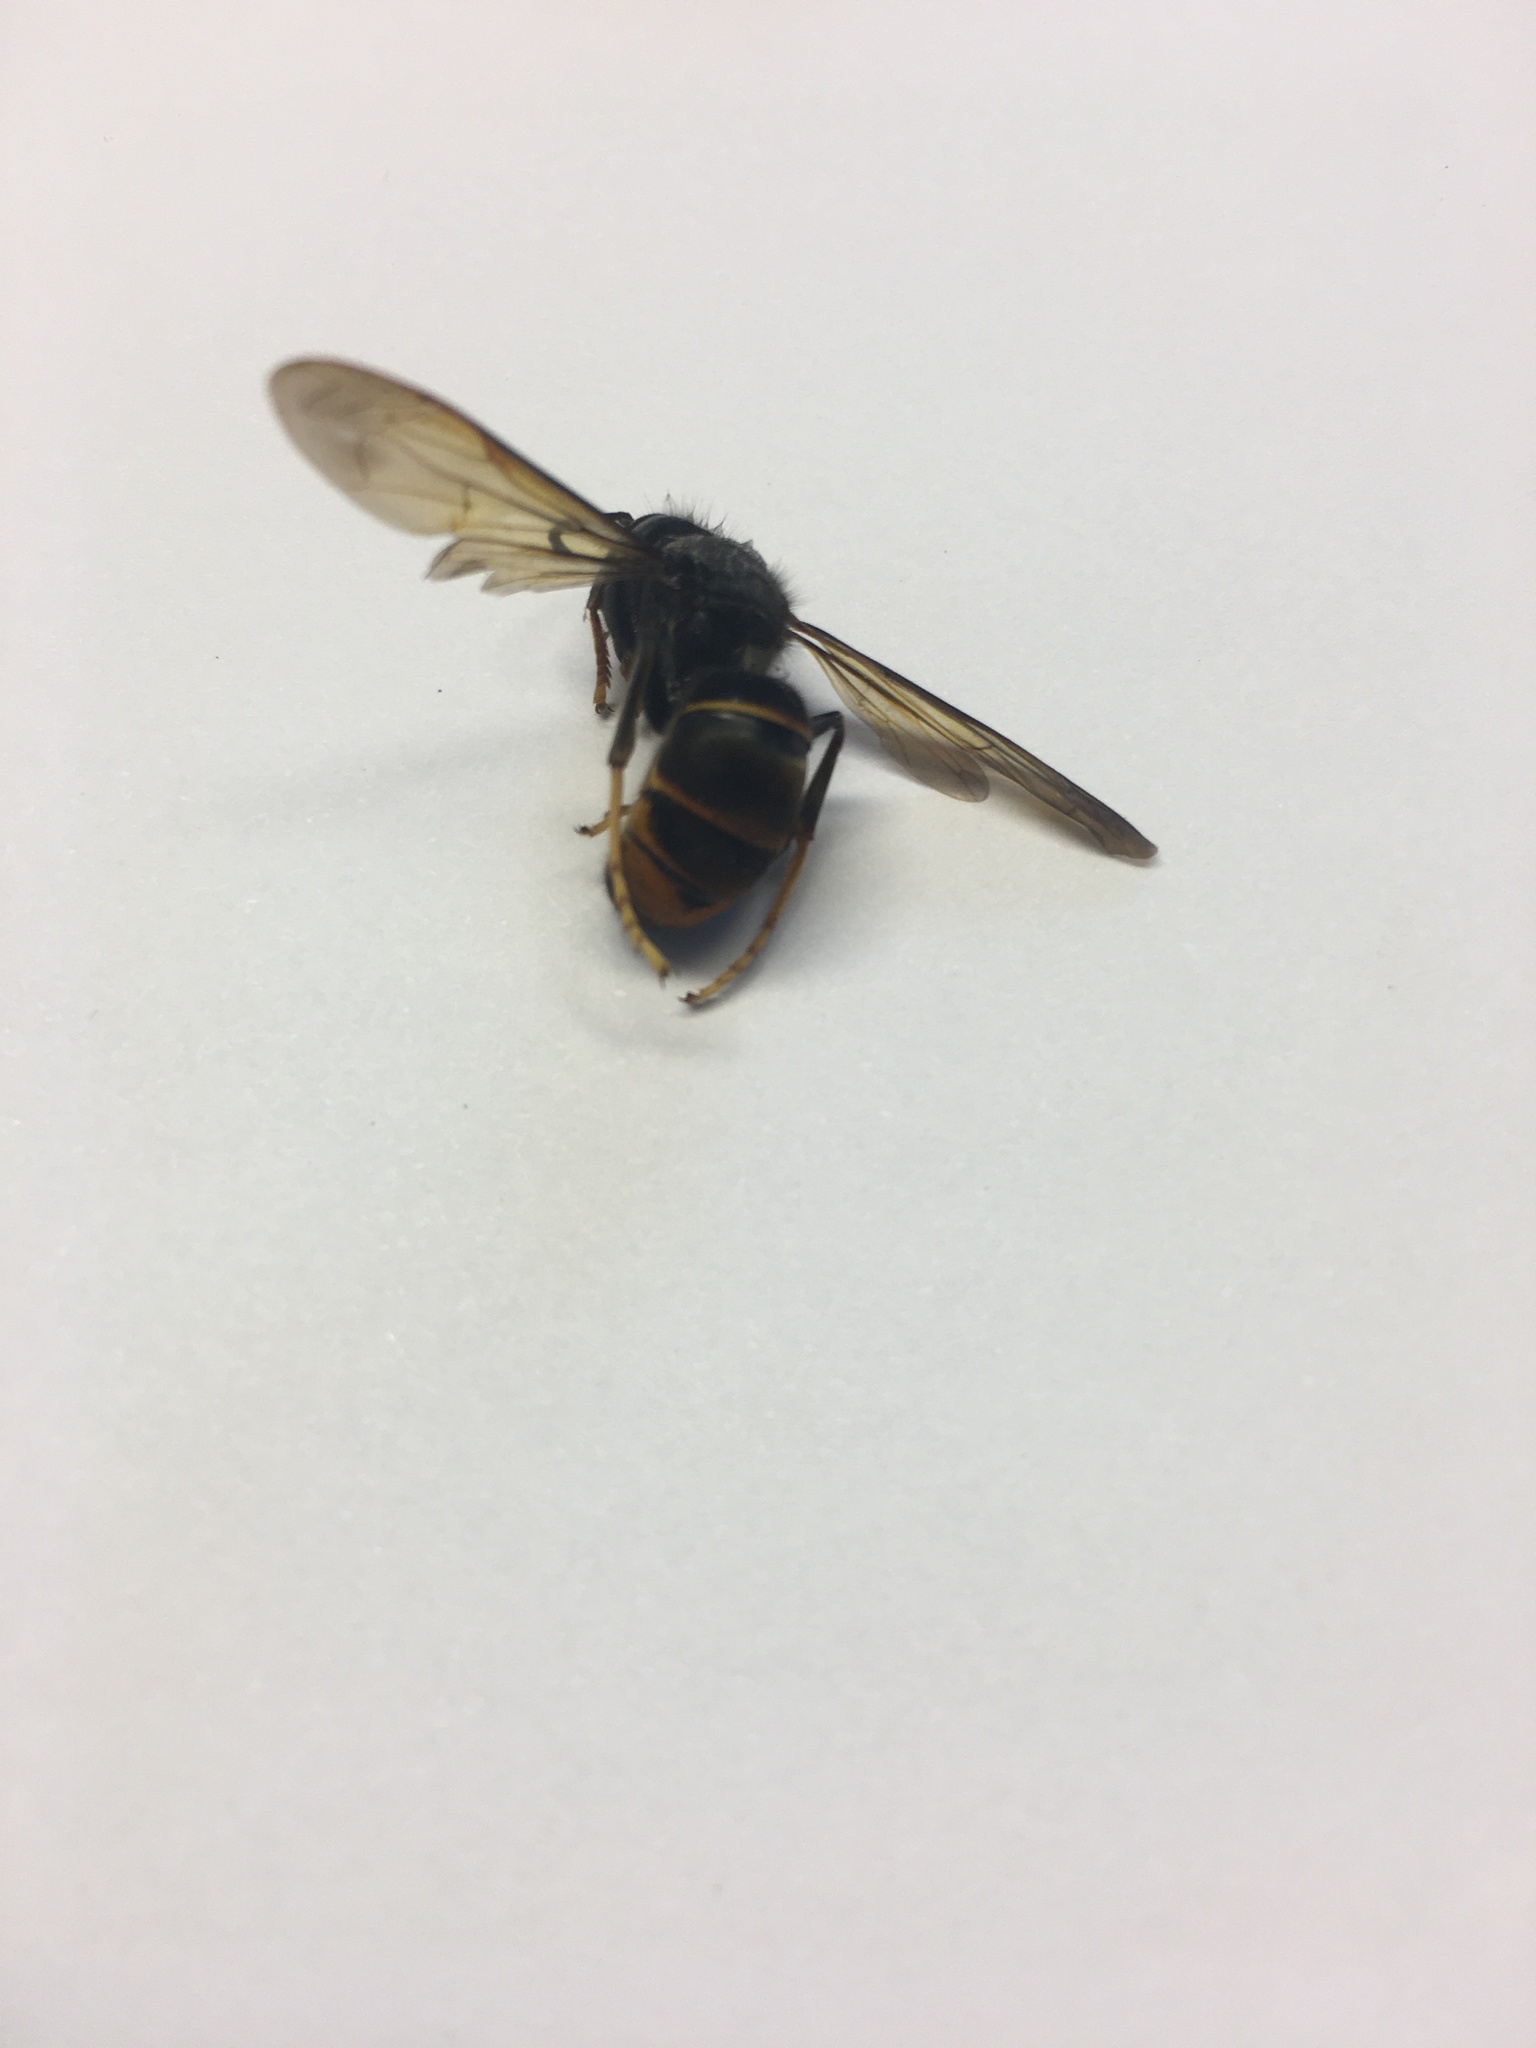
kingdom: Animalia
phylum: Arthropoda
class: Insecta
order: Hymenoptera
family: Vespidae
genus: Vespa
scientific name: Vespa velutina
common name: Asian hornet
